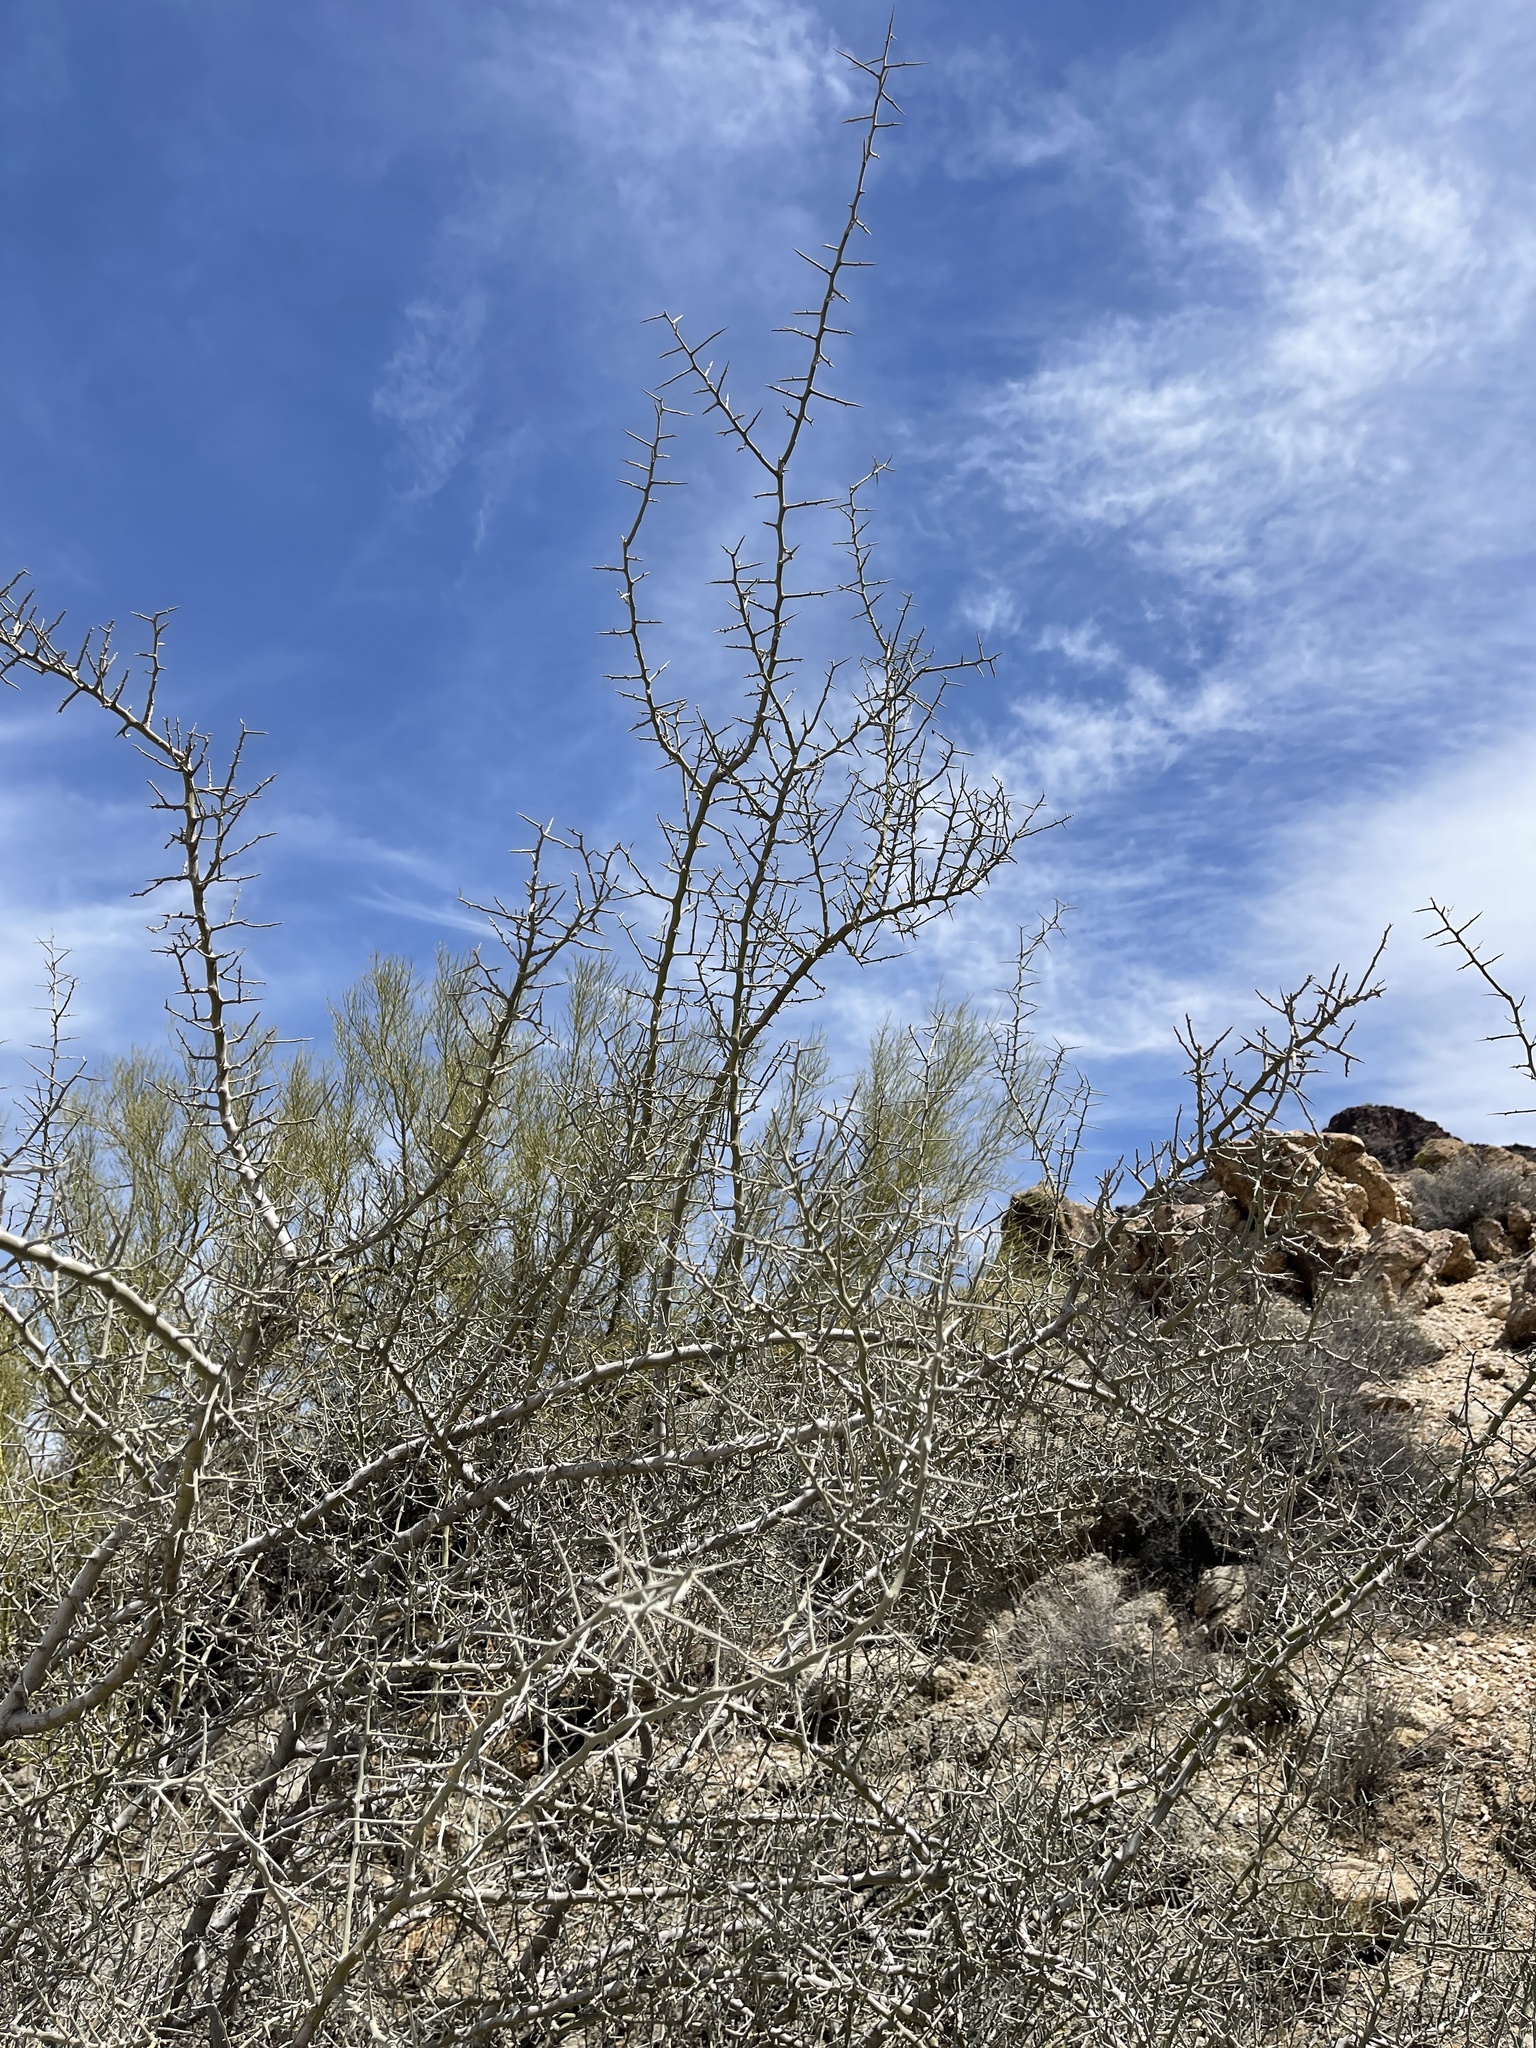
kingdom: Plantae
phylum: Tracheophyta
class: Magnoliopsida
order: Rosales
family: Rhamnaceae
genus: Sarcomphalus
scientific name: Sarcomphalus obtusifolius
